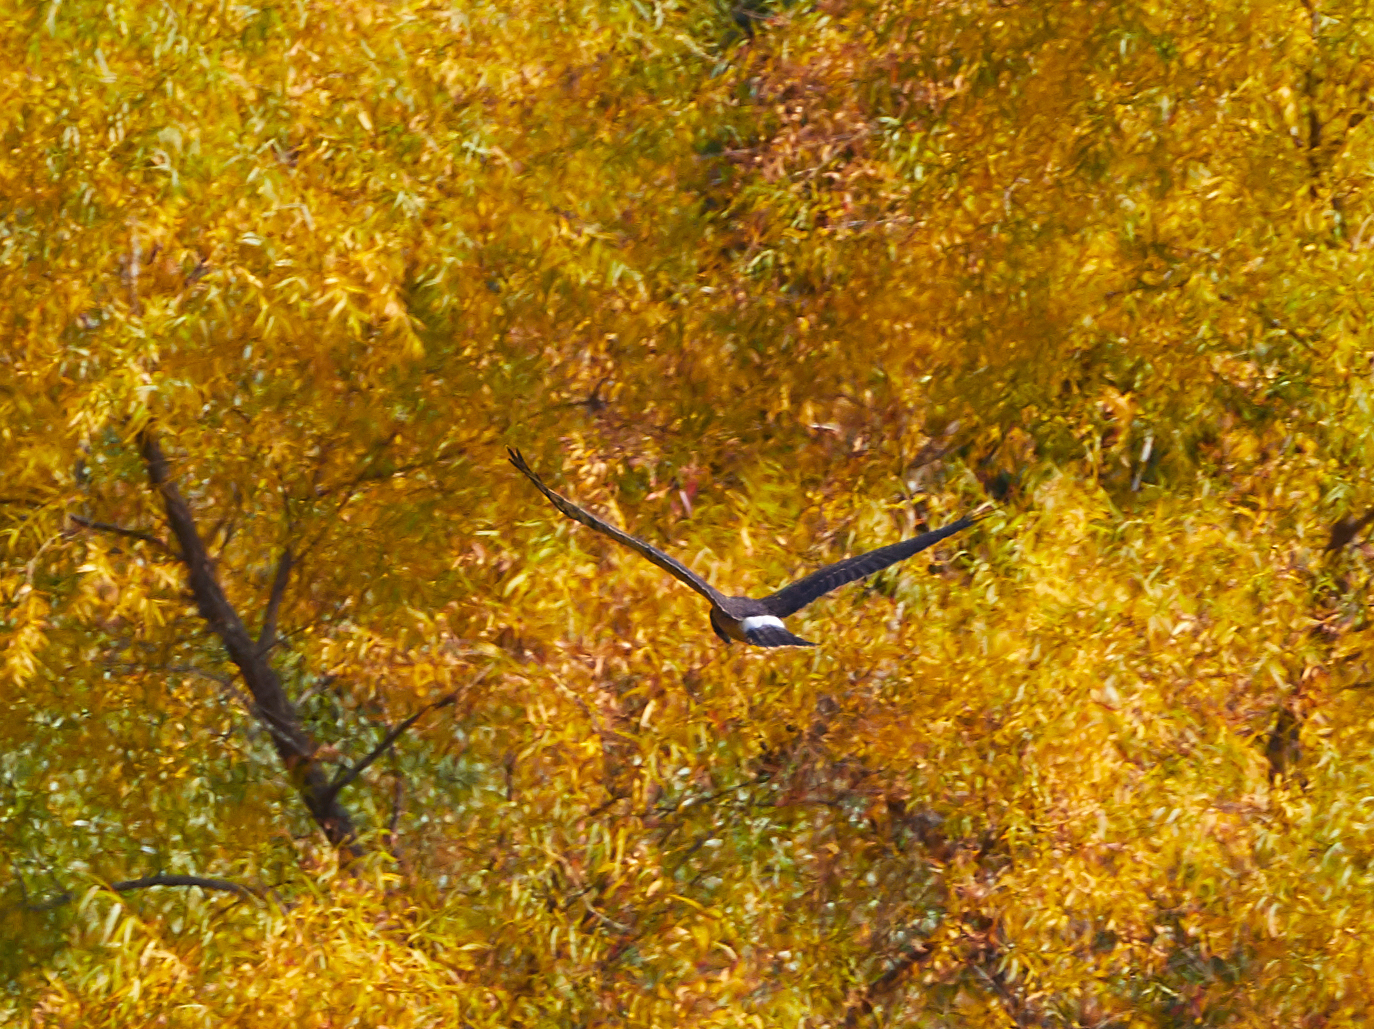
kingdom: Animalia
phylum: Chordata
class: Aves
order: Accipitriformes
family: Accipitridae
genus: Circus
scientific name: Circus cyaneus
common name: Hen harrier
